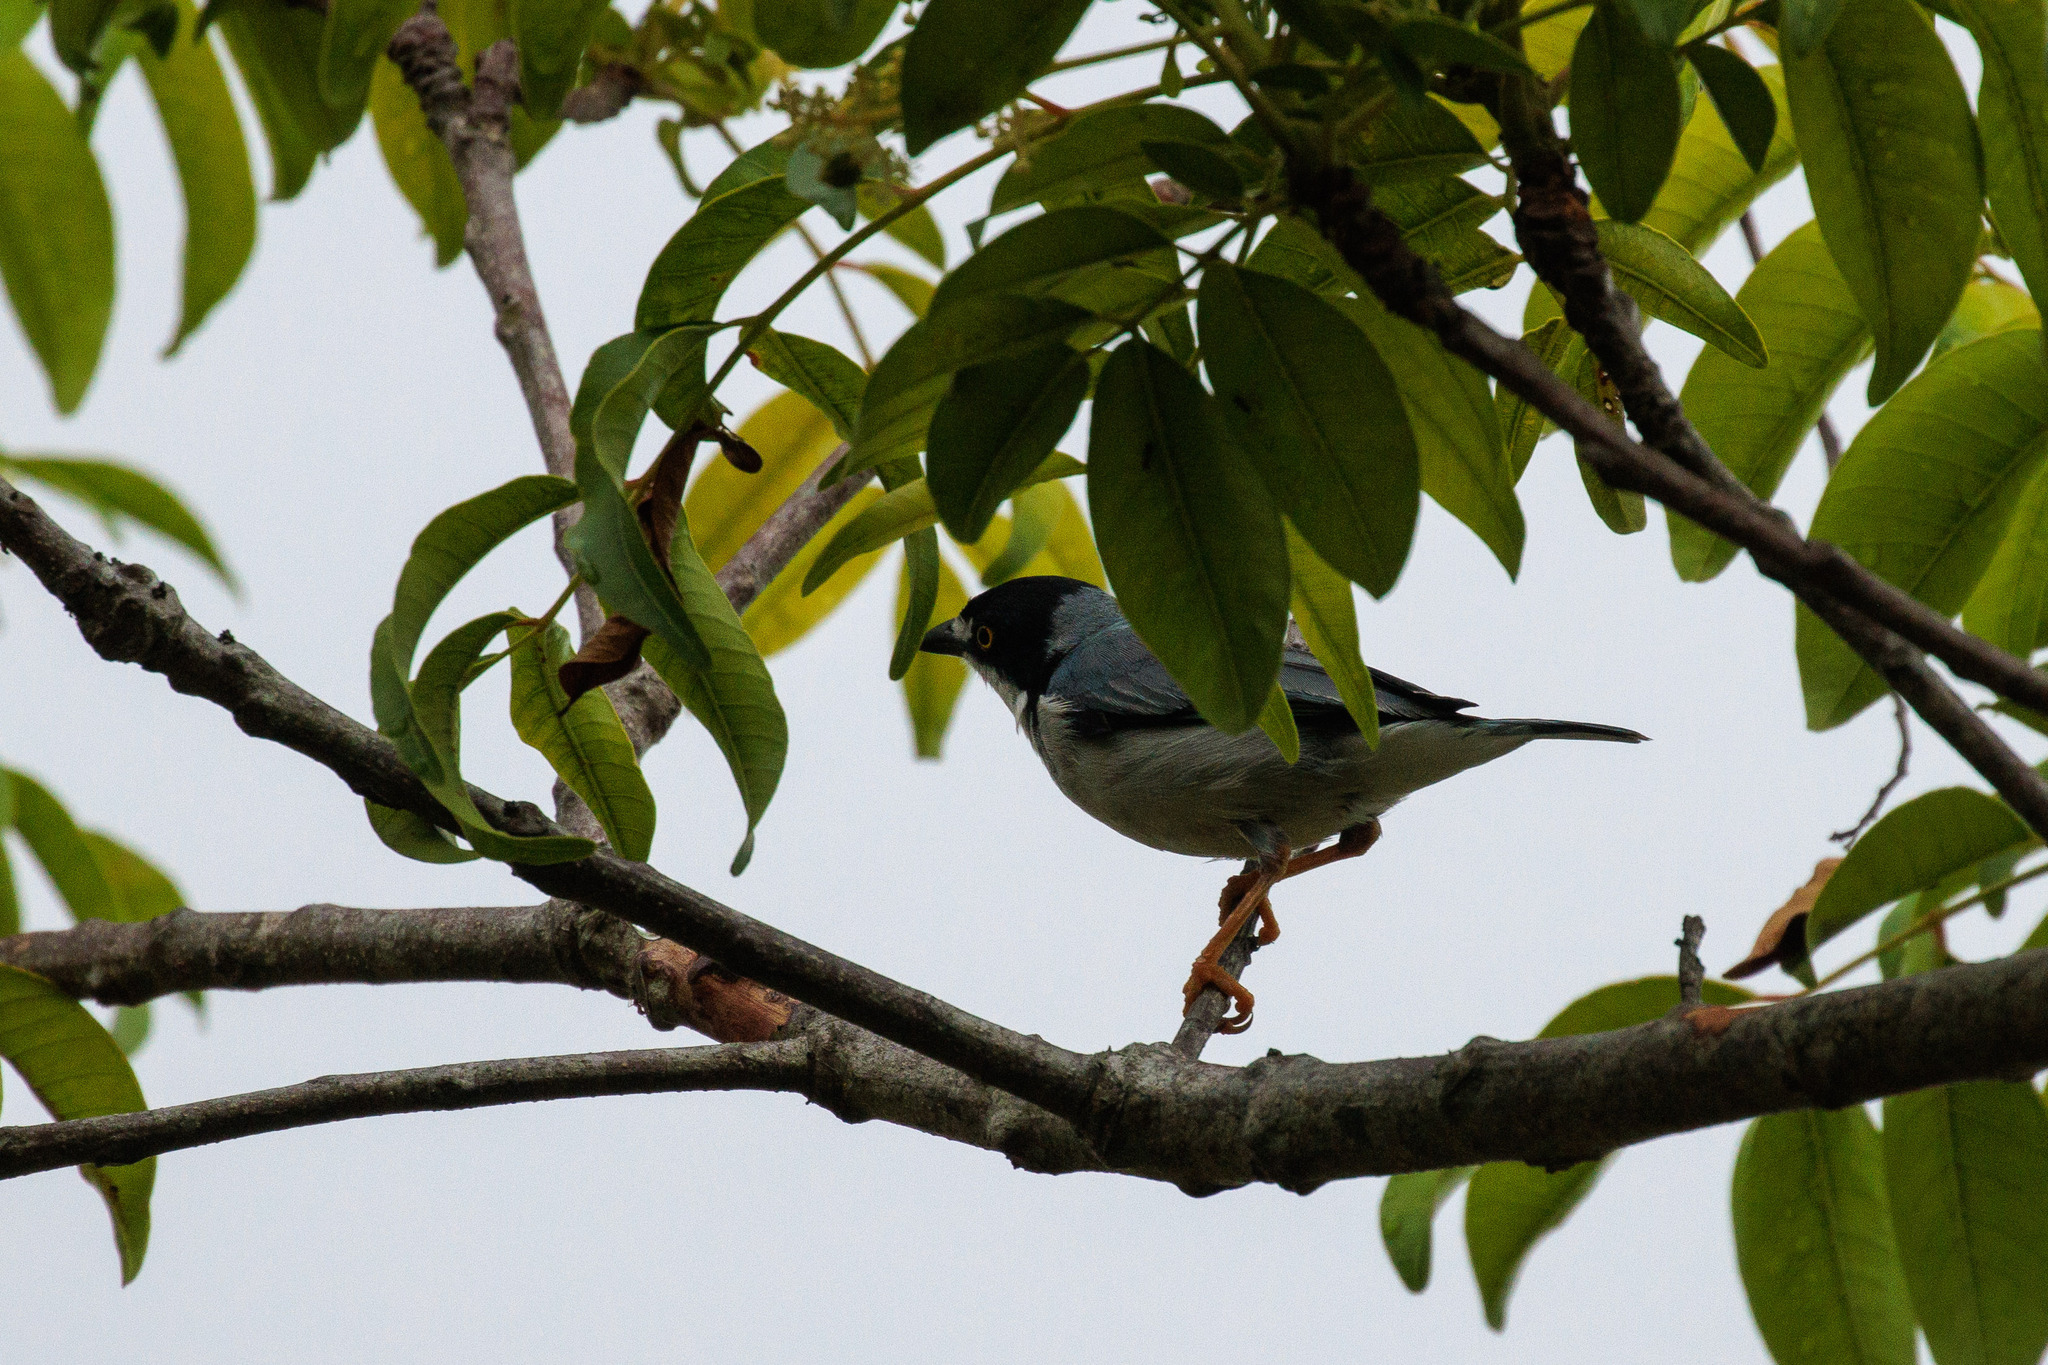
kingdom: Animalia
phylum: Chordata
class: Aves
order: Passeriformes
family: Thraupidae
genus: Nemosia
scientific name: Nemosia pileata
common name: Hooded tanager
